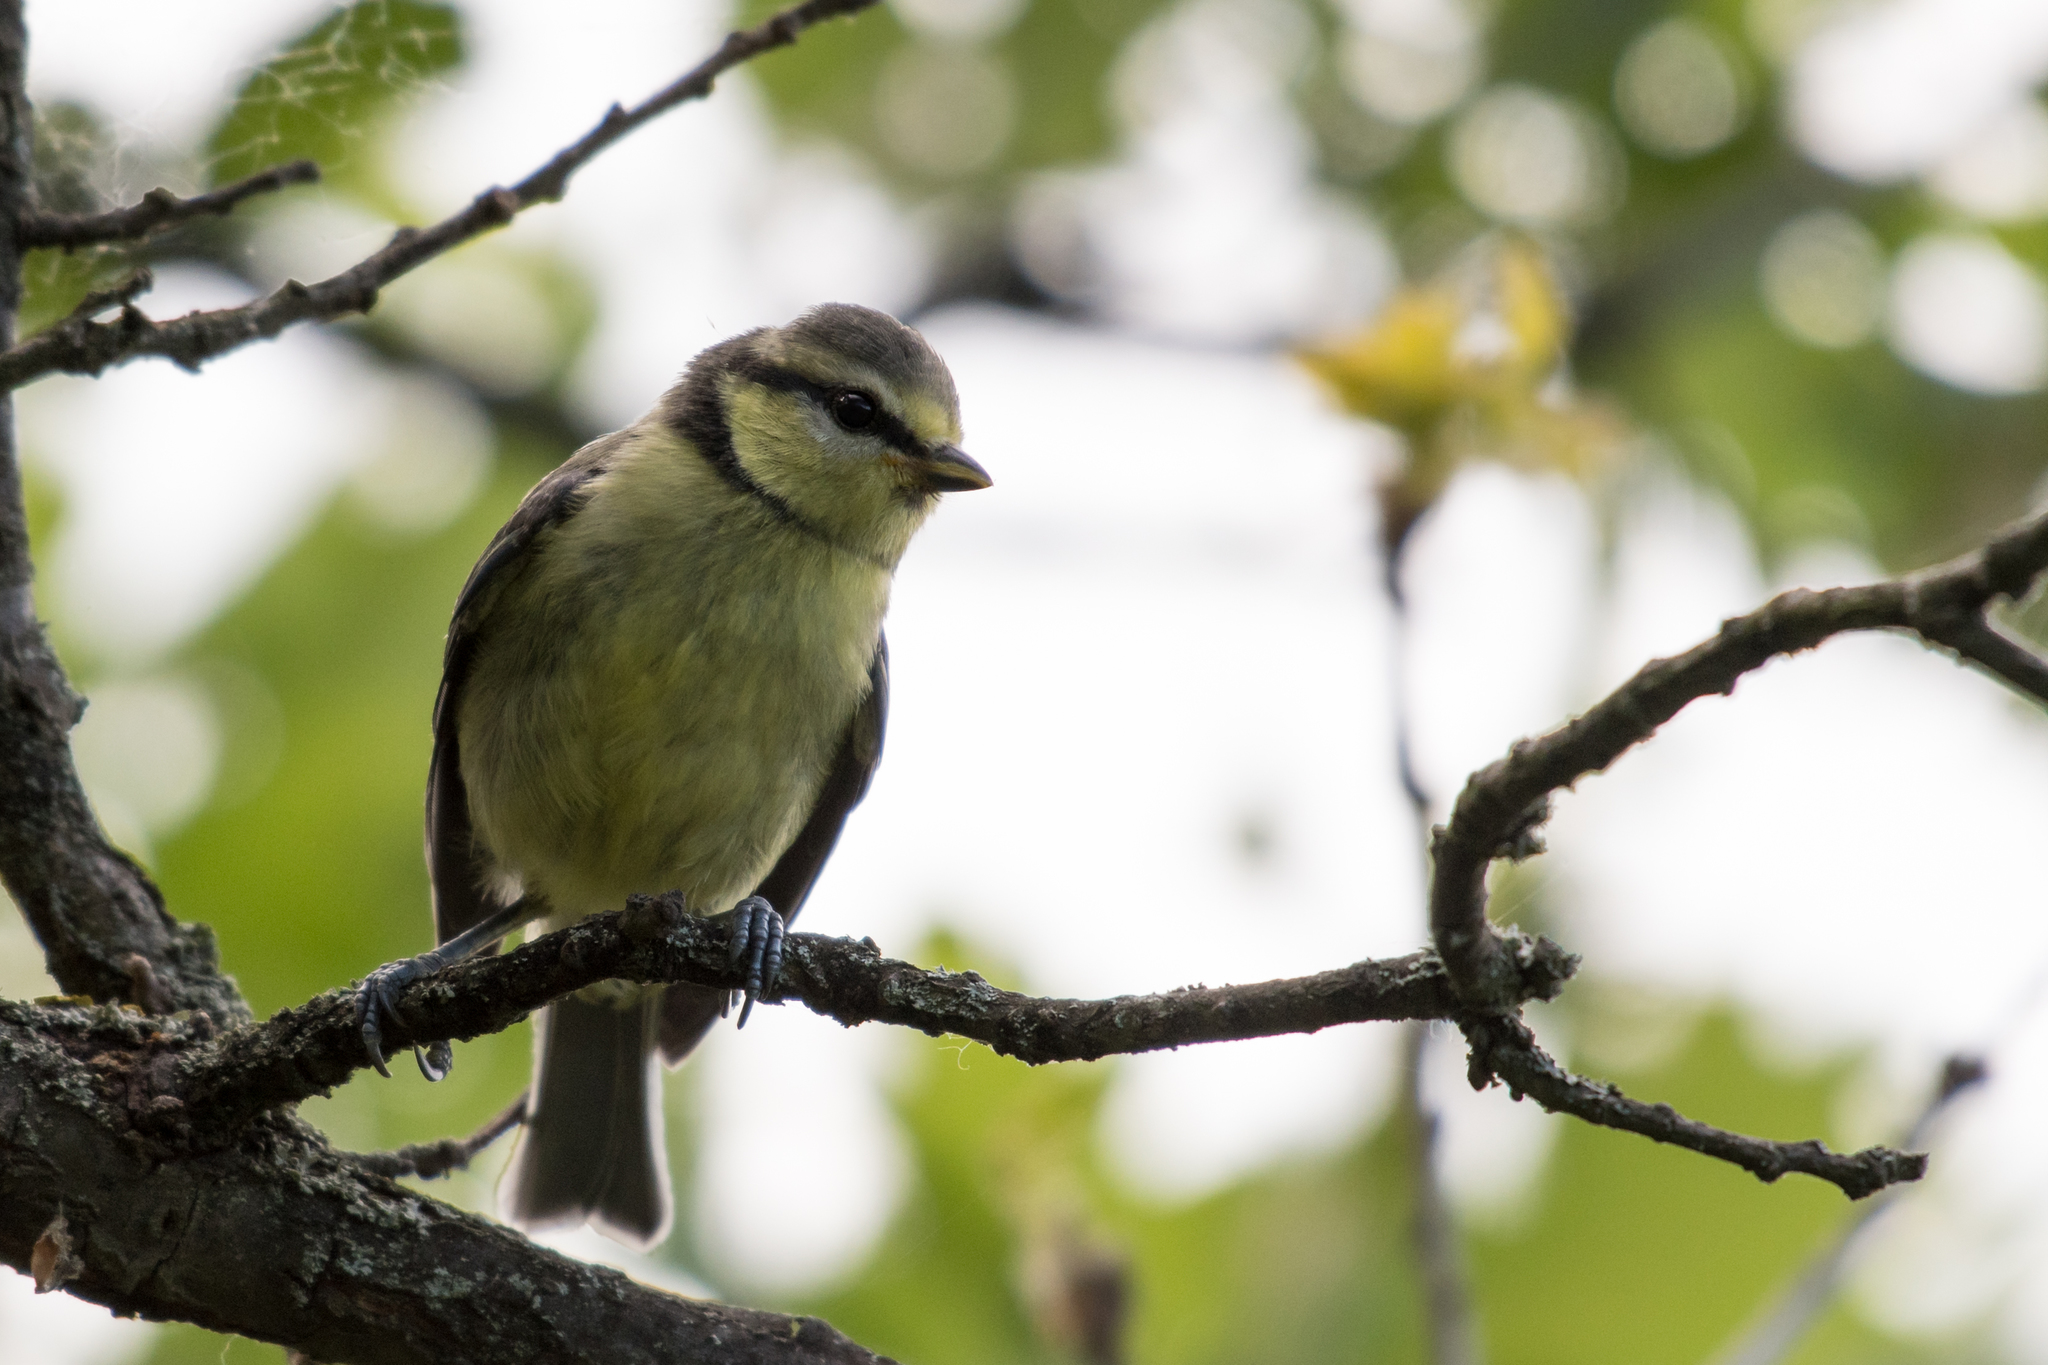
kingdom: Animalia
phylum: Chordata
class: Aves
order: Passeriformes
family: Paridae
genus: Cyanistes
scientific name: Cyanistes caeruleus
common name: Eurasian blue tit
